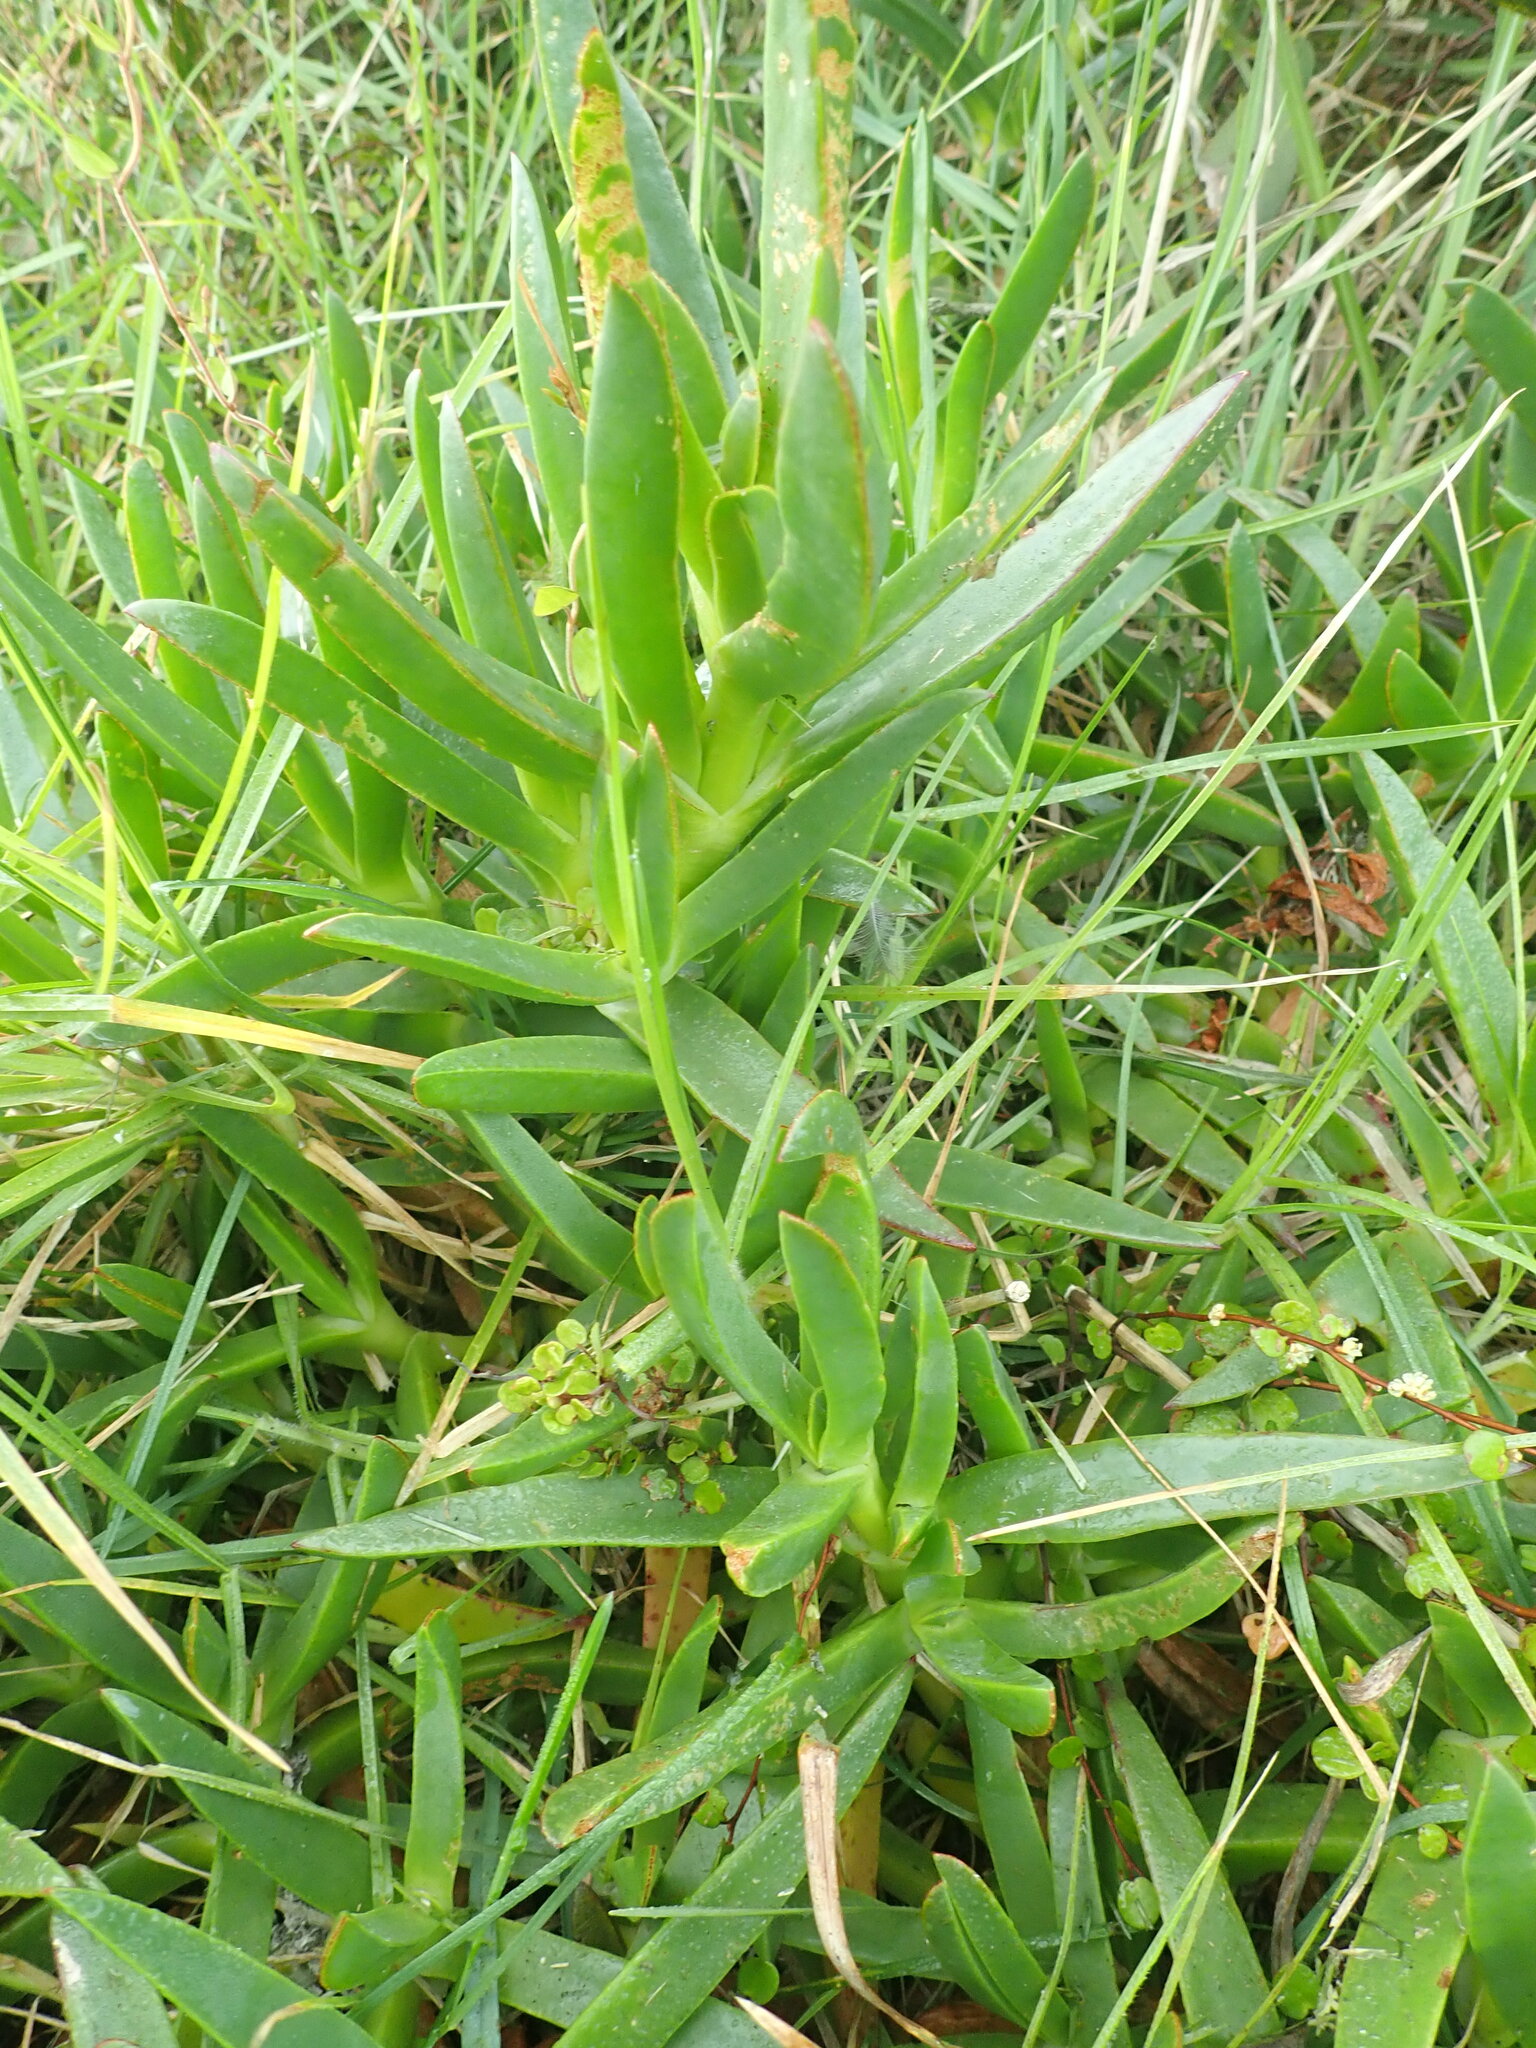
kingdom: Plantae
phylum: Tracheophyta
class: Magnoliopsida
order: Caryophyllales
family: Aizoaceae
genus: Carpobrotus
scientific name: Carpobrotus edulis
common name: Hottentot-fig
